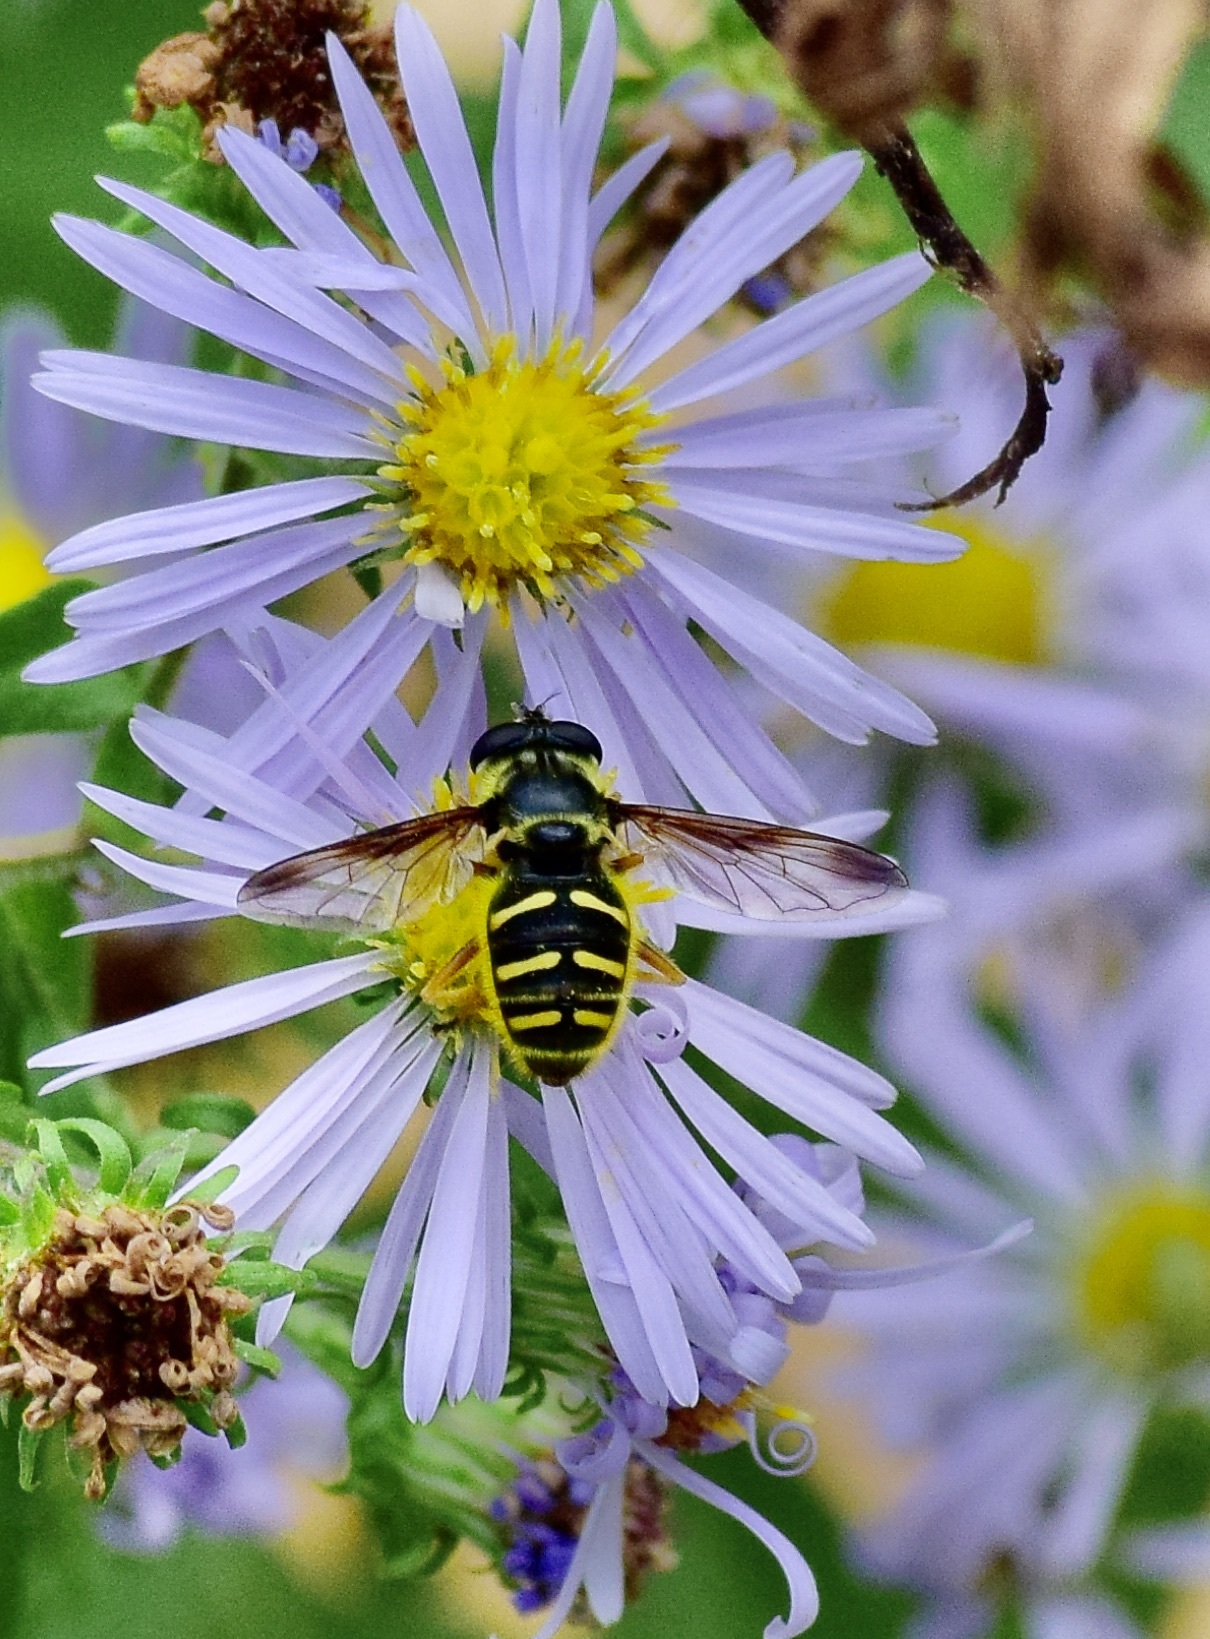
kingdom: Animalia
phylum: Arthropoda
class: Insecta
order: Diptera
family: Syrphidae
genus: Sericomyia
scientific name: Sericomyia chrysotoxoides
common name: Oblique-banded pond fly
